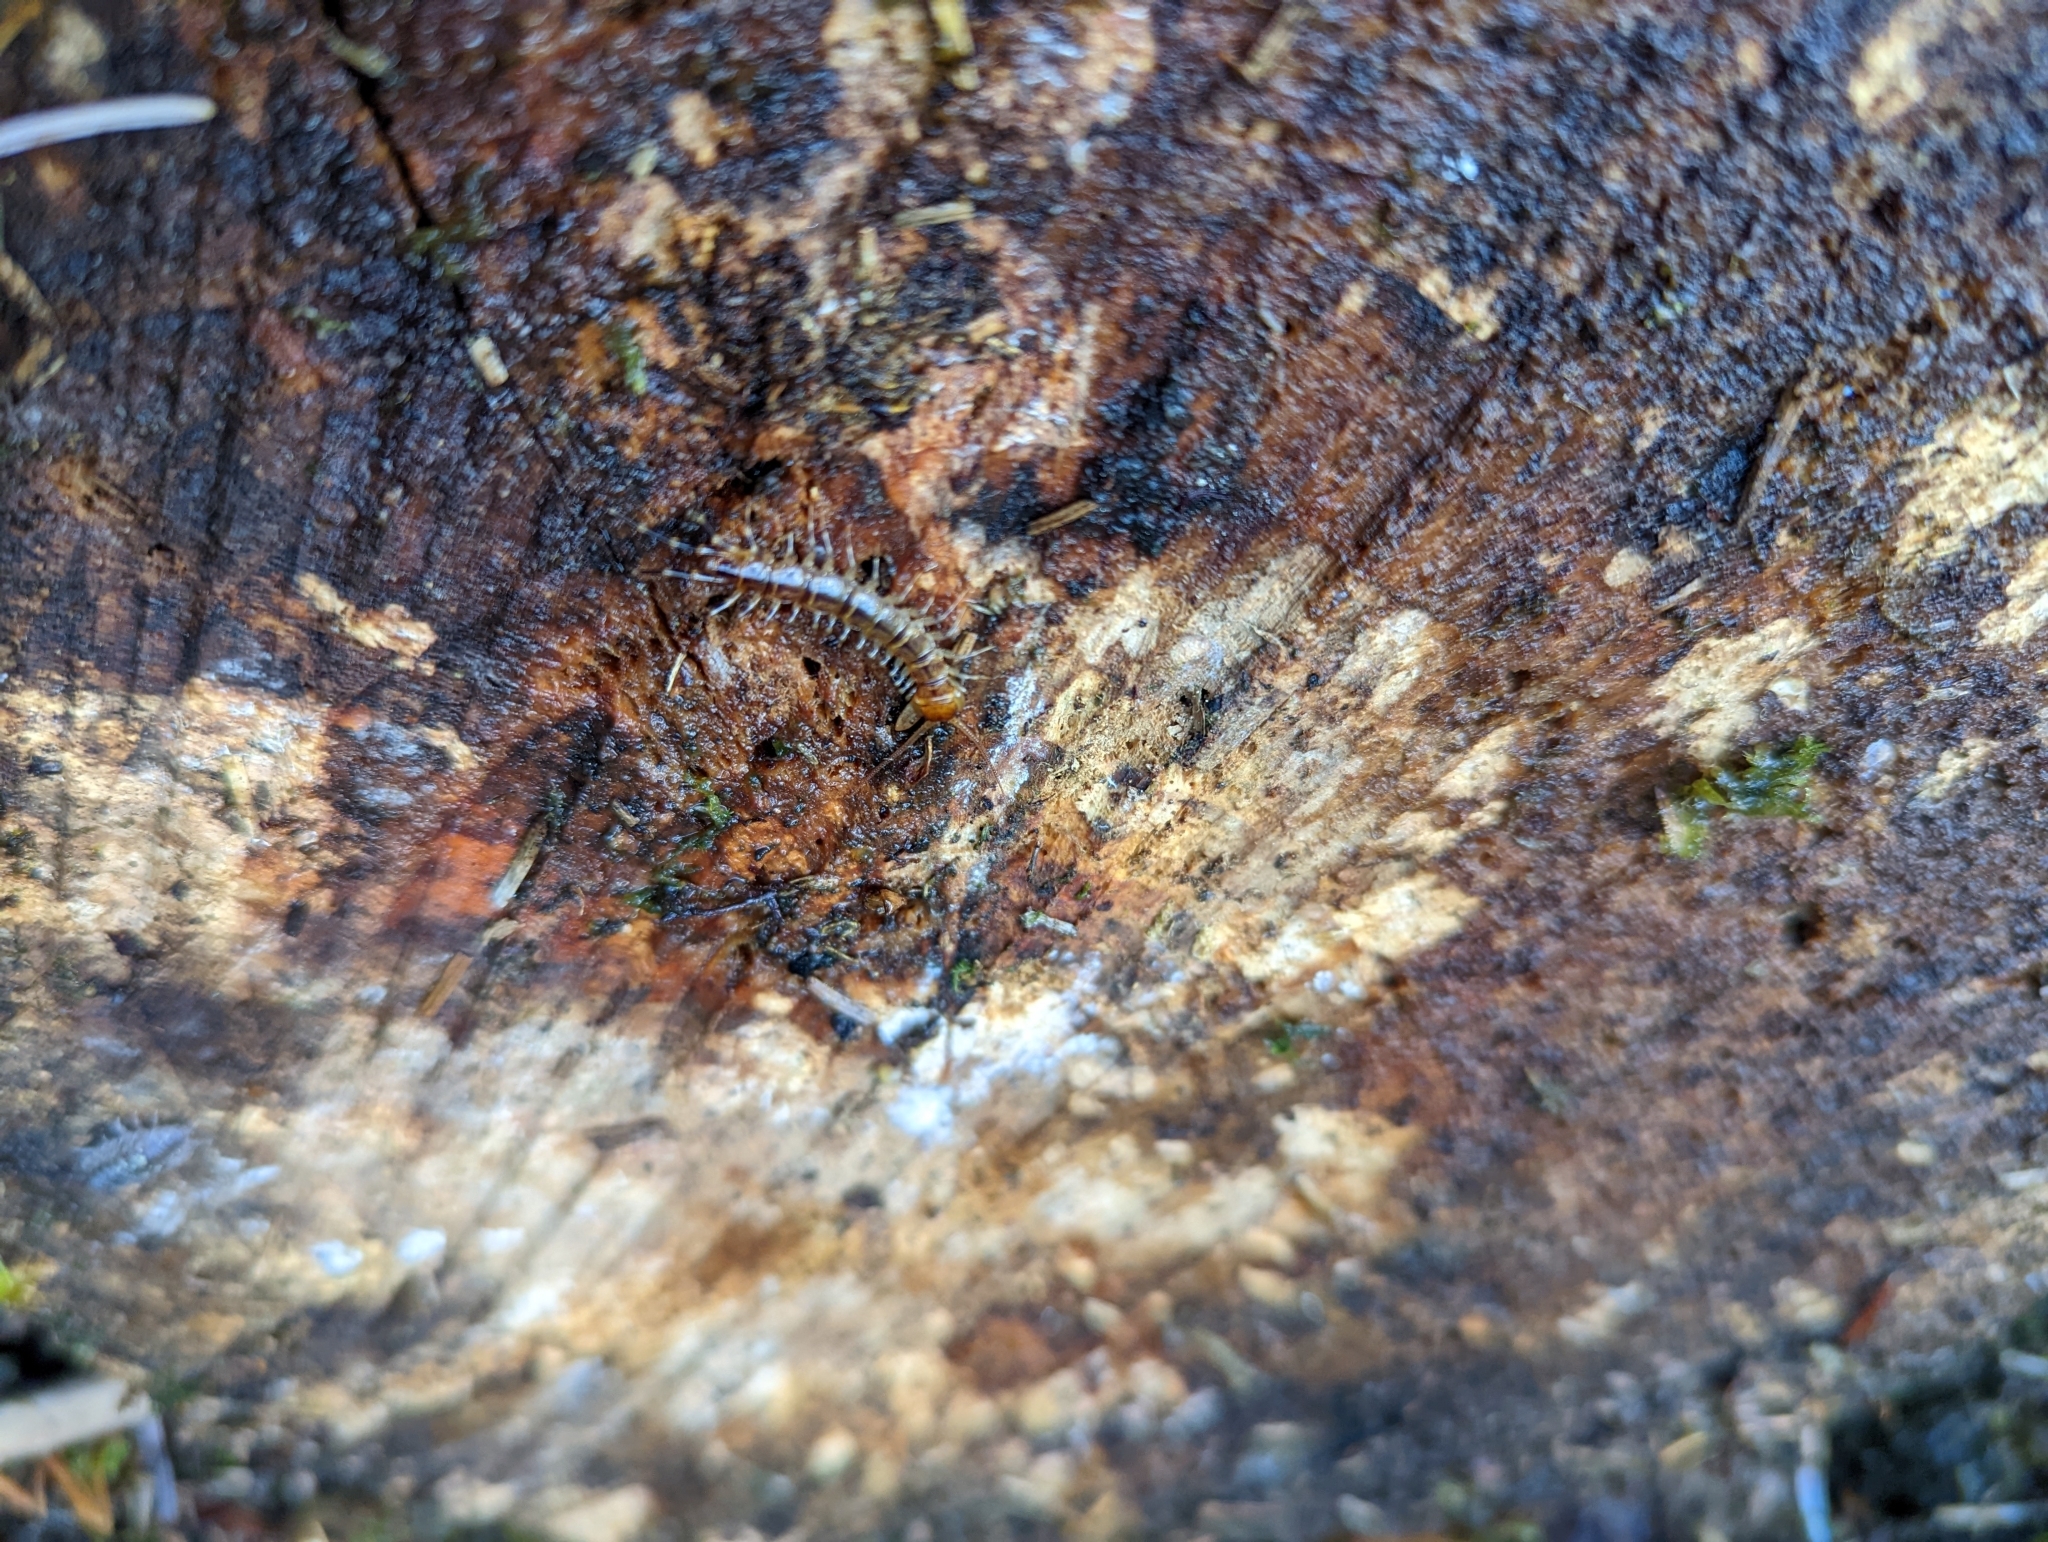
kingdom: Animalia
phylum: Arthropoda
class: Chilopoda
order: Lithobiomorpha
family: Lithobiidae
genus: Lithobius
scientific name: Lithobius variegatus
